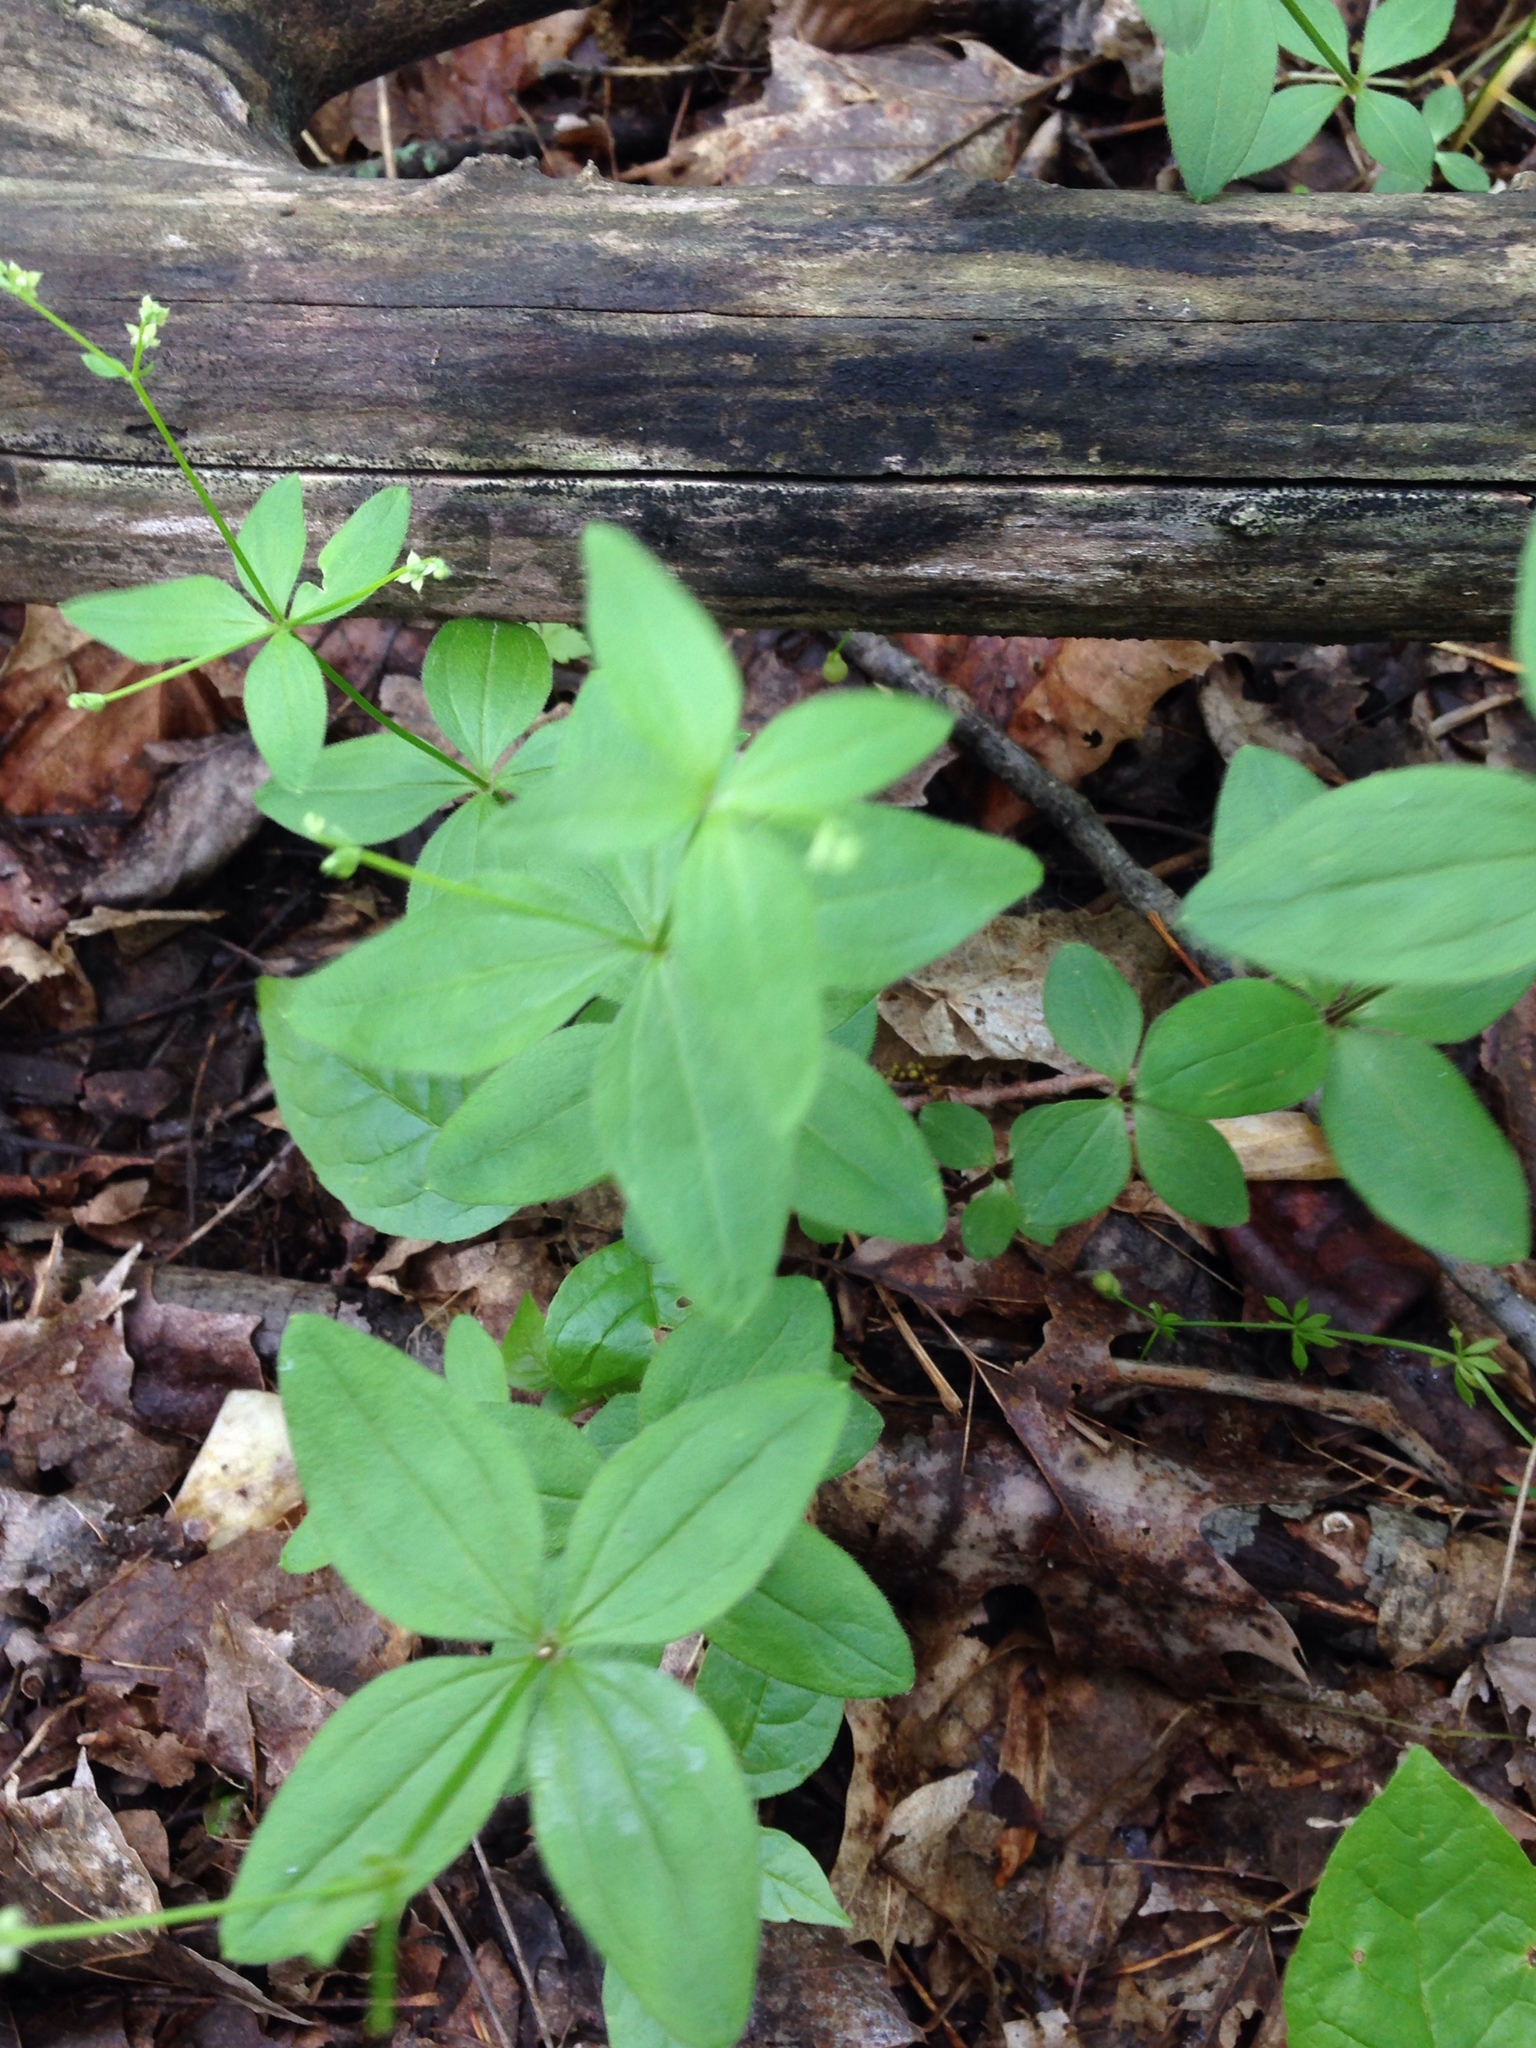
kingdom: Plantae
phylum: Tracheophyta
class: Magnoliopsida
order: Gentianales
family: Rubiaceae
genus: Galium
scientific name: Galium circaezans
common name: Forest bedstraw
